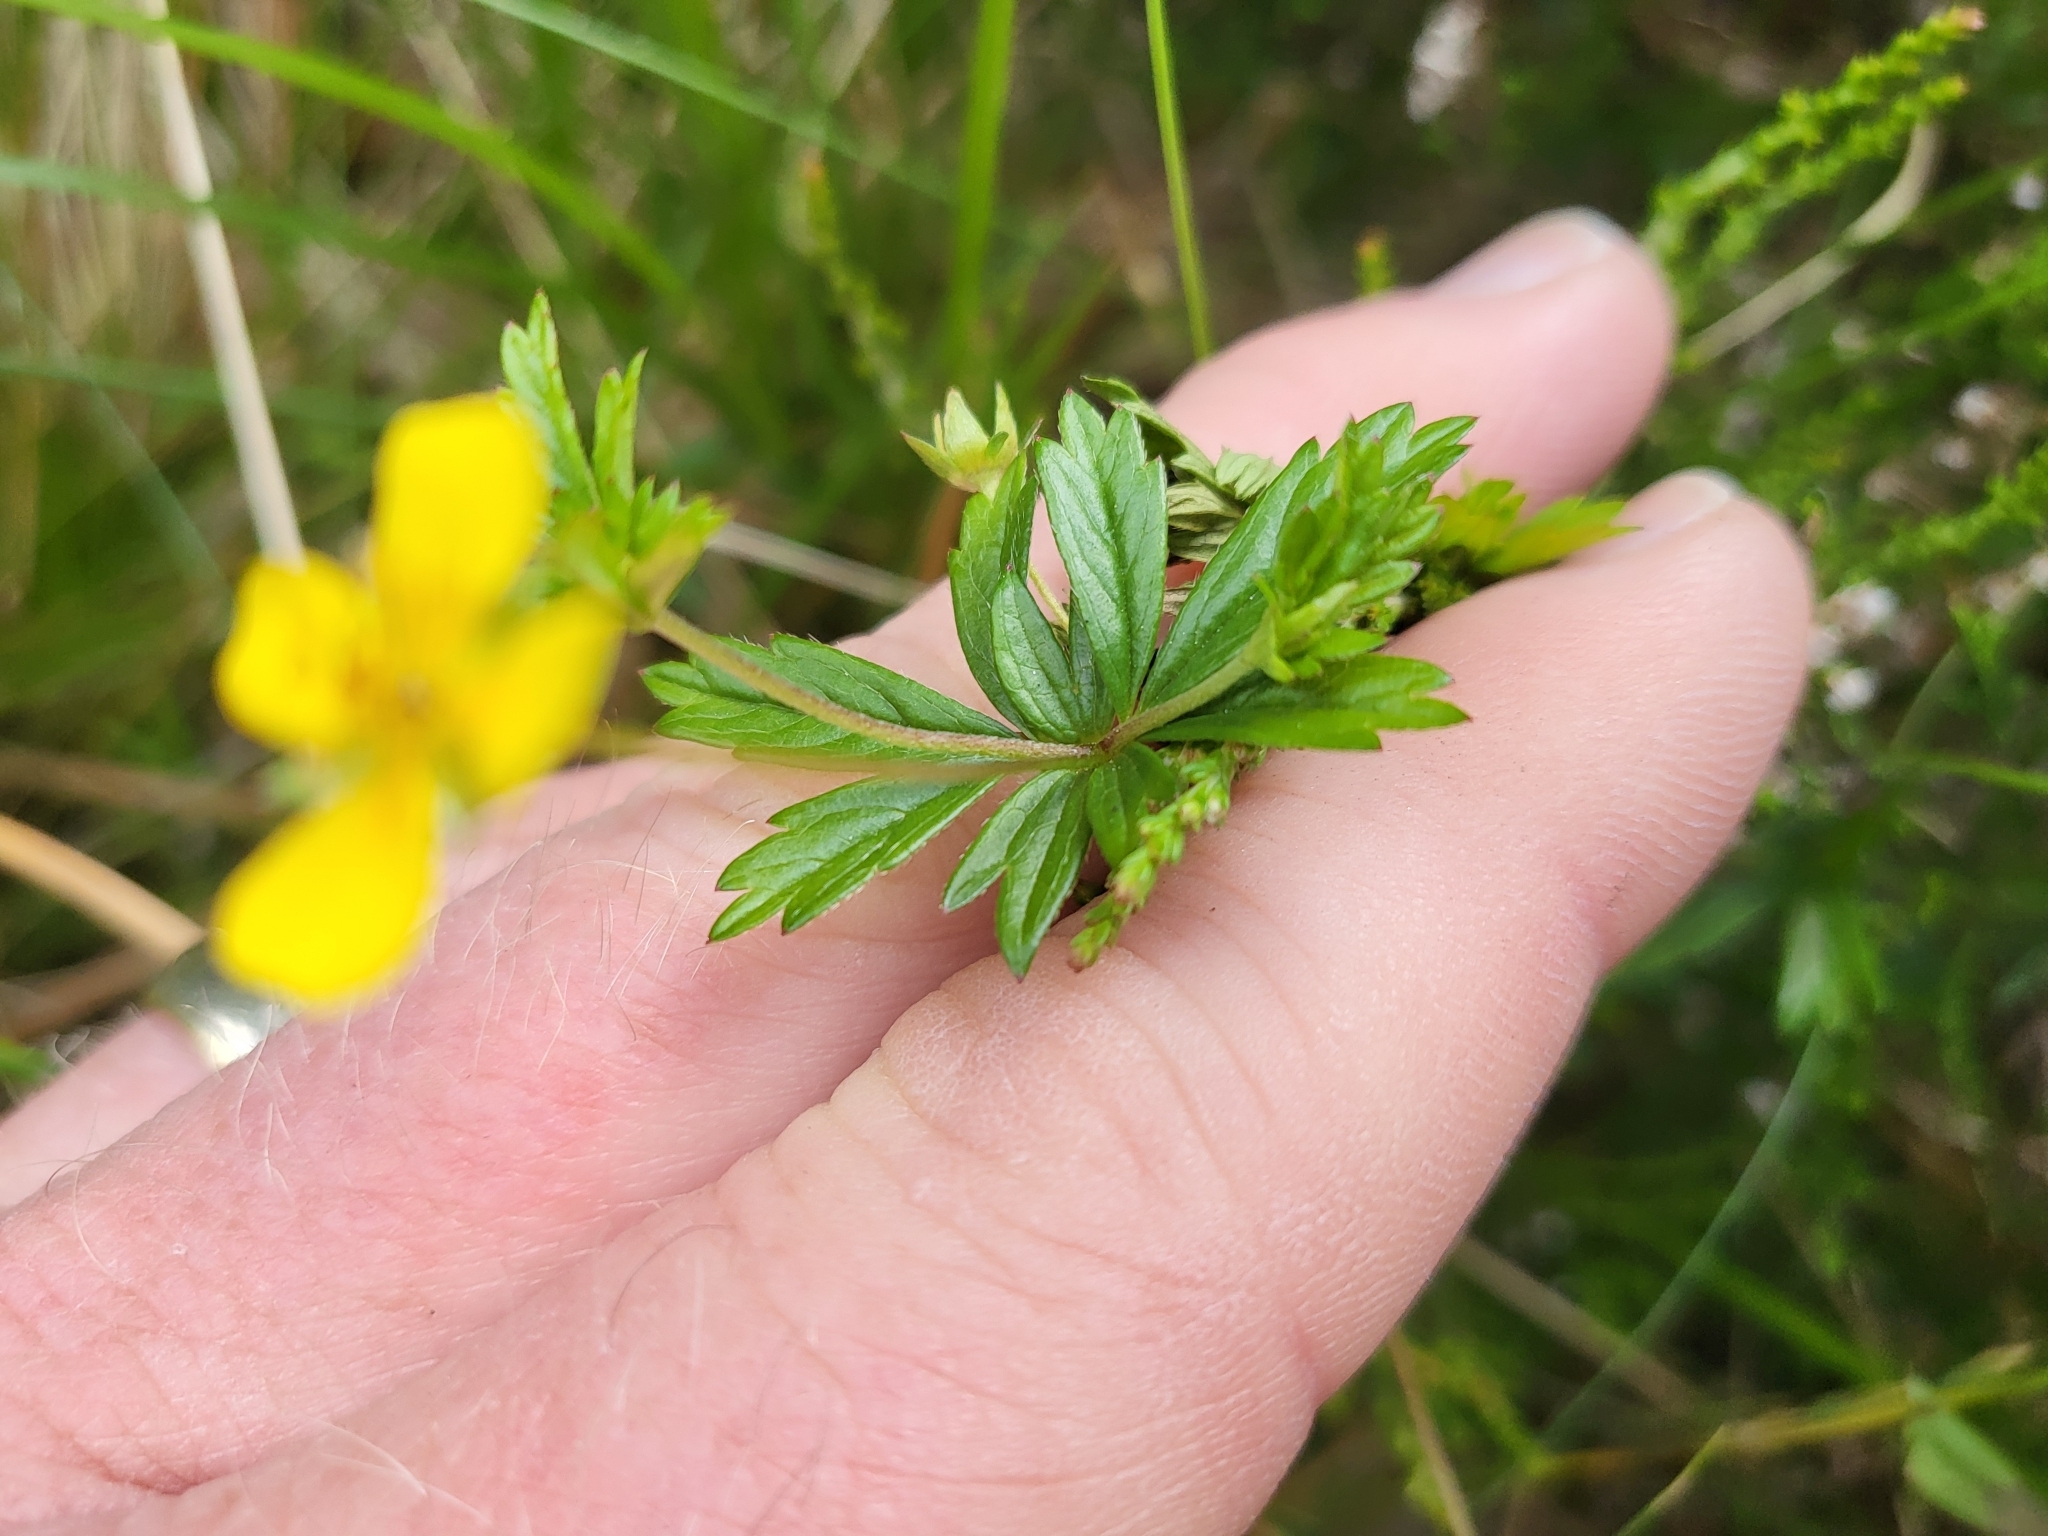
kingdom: Plantae
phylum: Tracheophyta
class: Magnoliopsida
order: Rosales
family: Rosaceae
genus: Potentilla
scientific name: Potentilla erecta
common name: Tormentil
